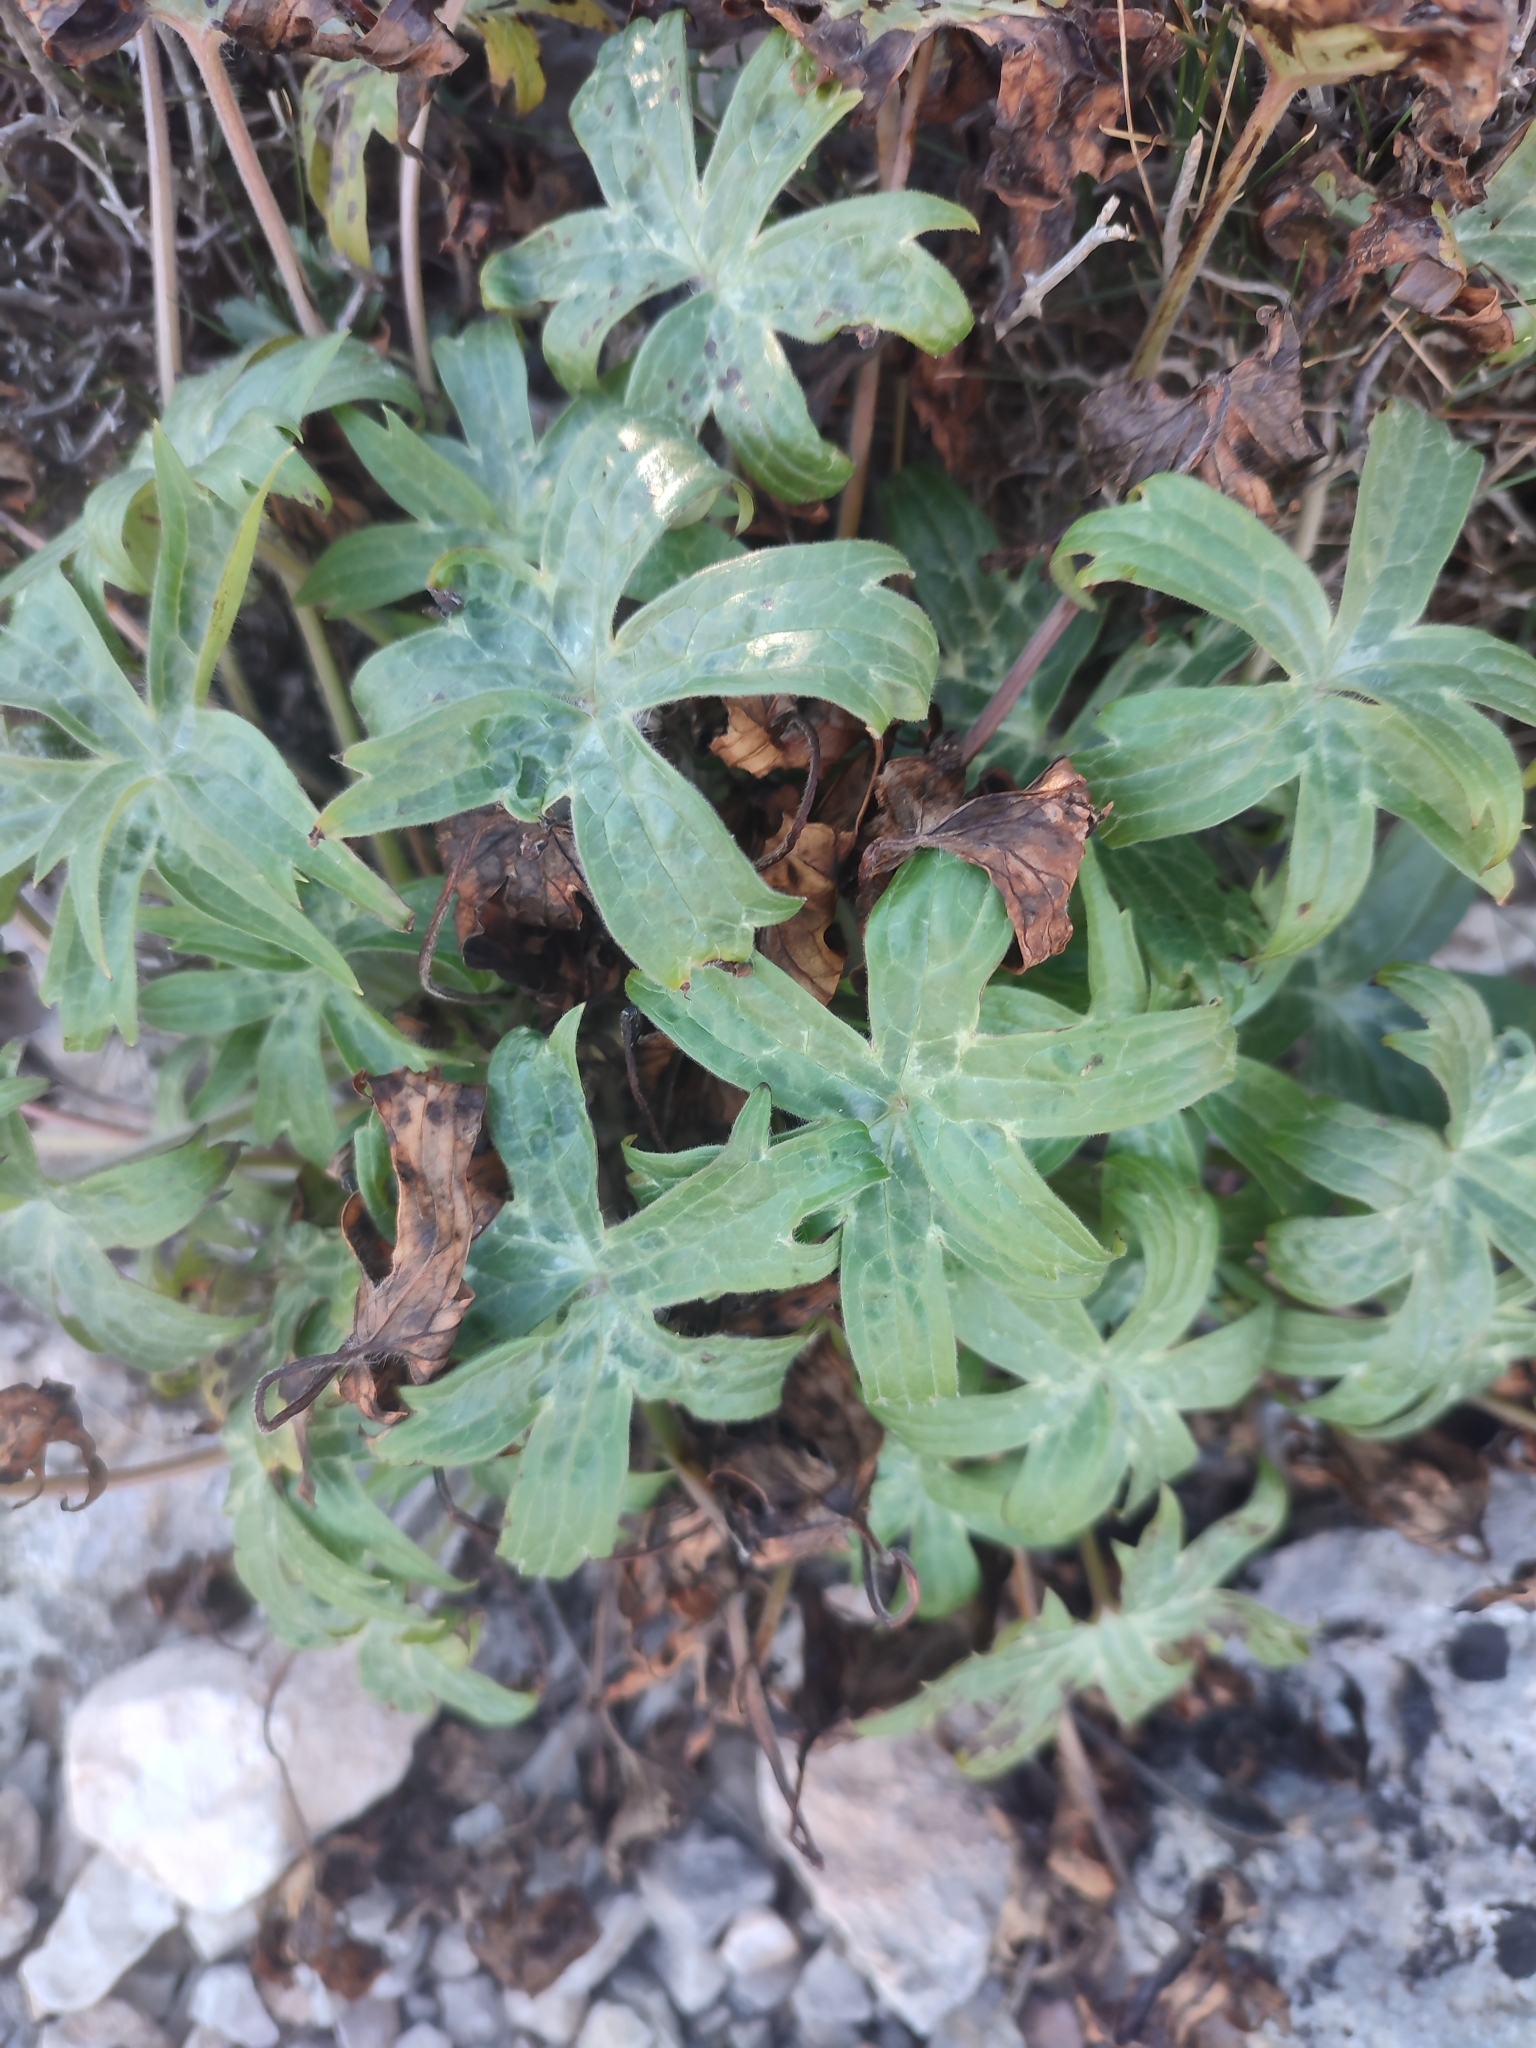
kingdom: Plantae
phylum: Tracheophyta
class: Magnoliopsida
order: Ranunculales
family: Ranunculaceae
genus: Staphisagria
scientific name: Staphisagria picta
